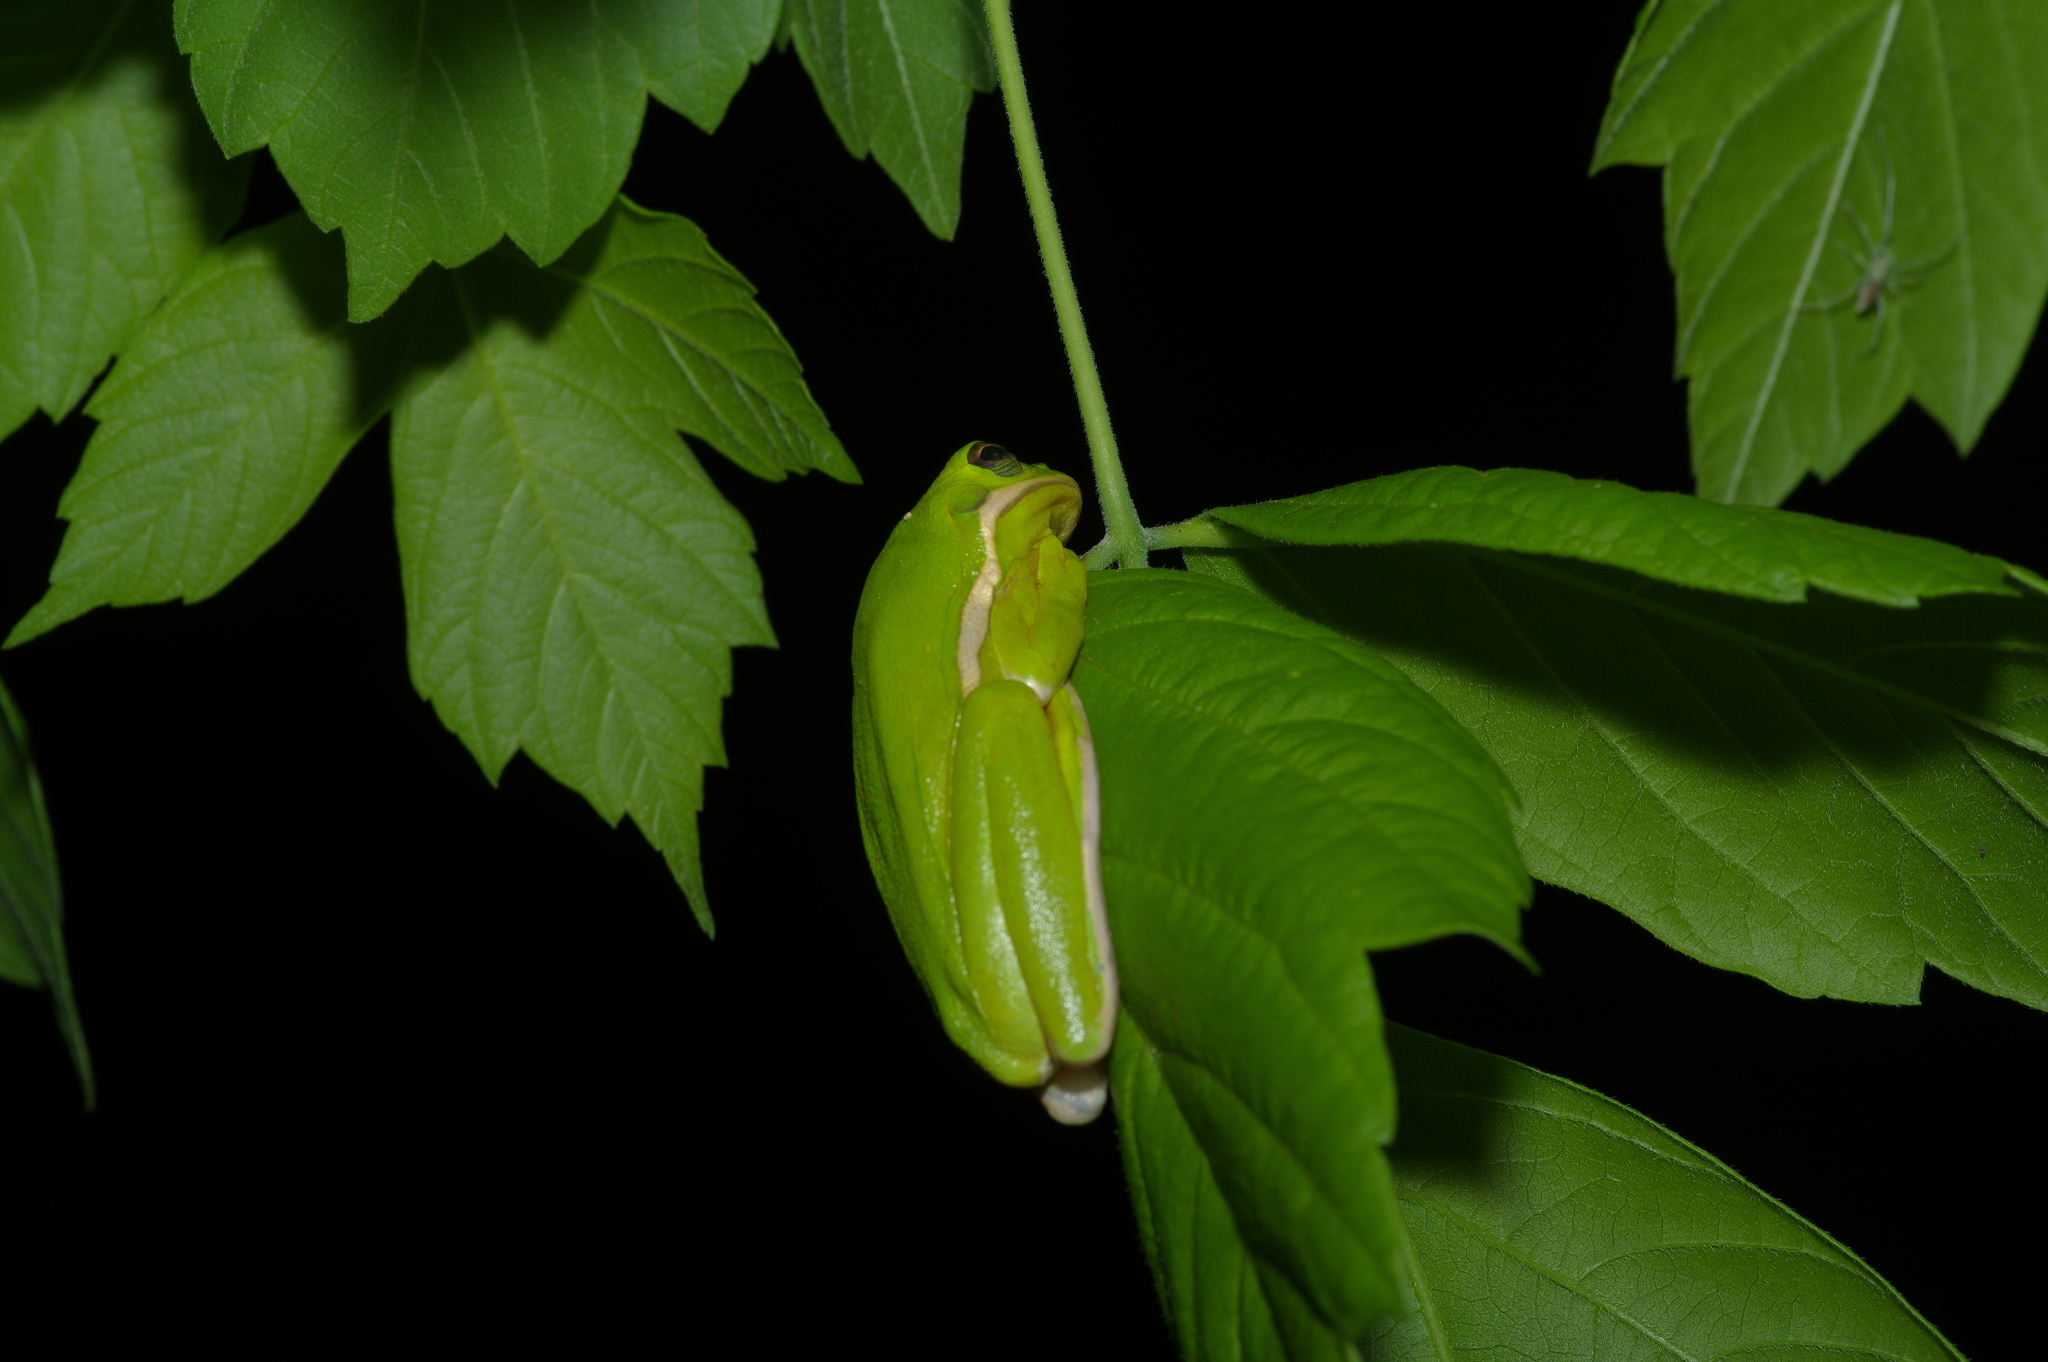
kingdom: Animalia
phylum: Chordata
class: Amphibia
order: Anura
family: Hylidae
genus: Dryophytes
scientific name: Dryophytes cinereus
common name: Green treefrog
